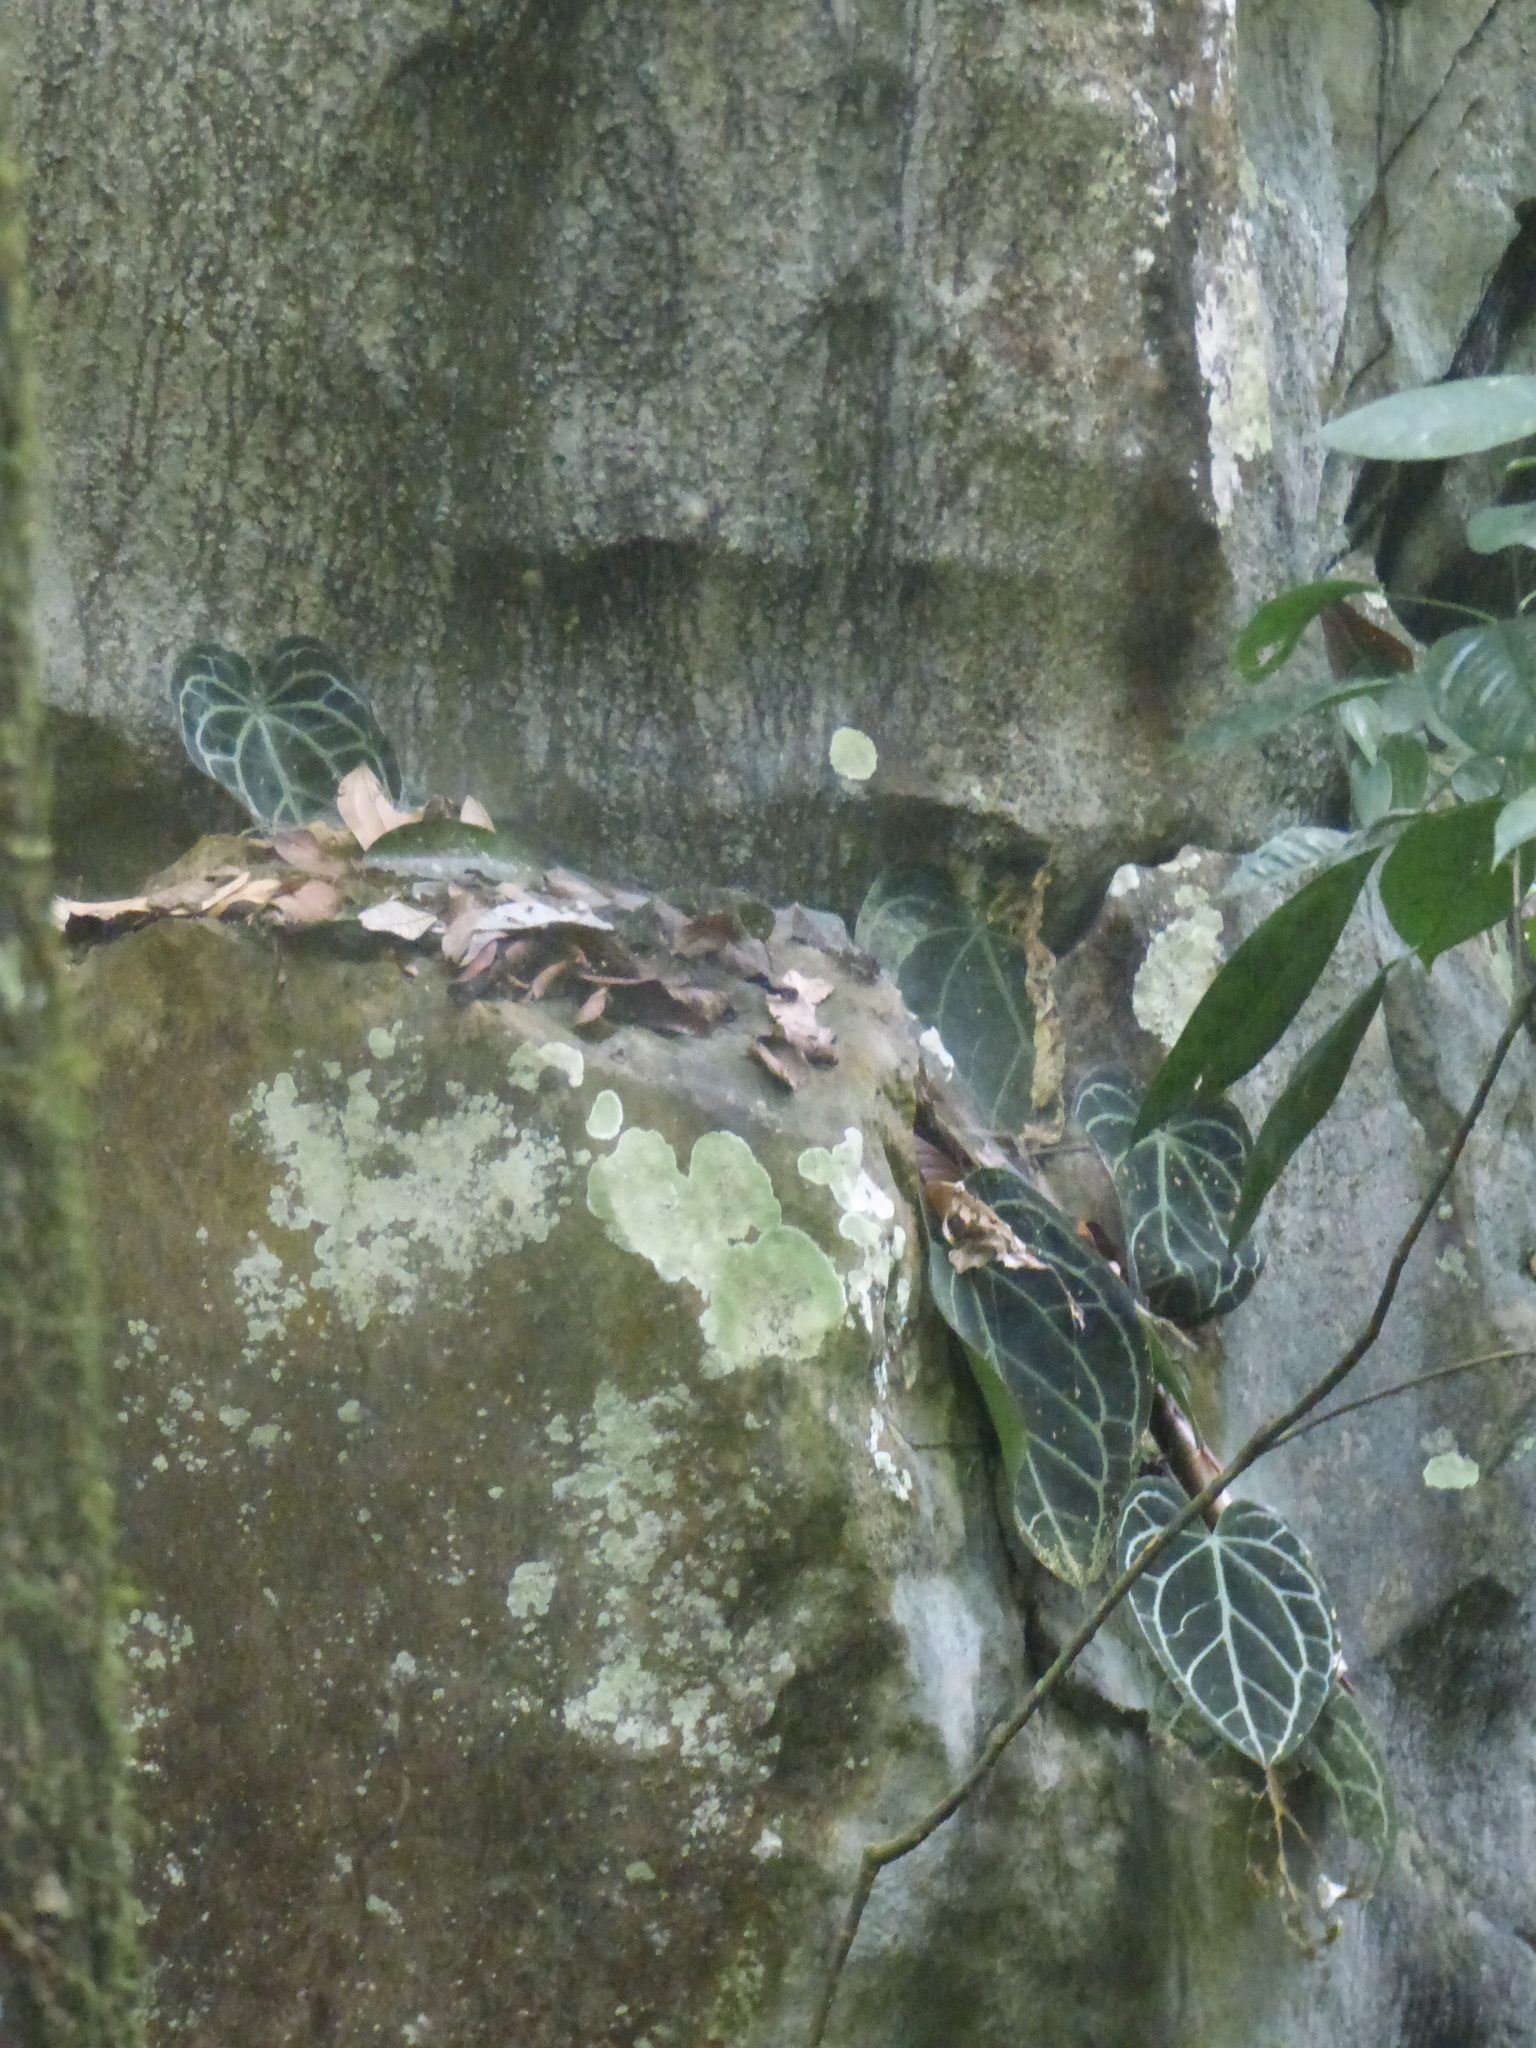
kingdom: Plantae
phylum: Tracheophyta
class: Liliopsida
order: Alismatales
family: Araceae
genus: Anthurium
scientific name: Anthurium crystallinum
